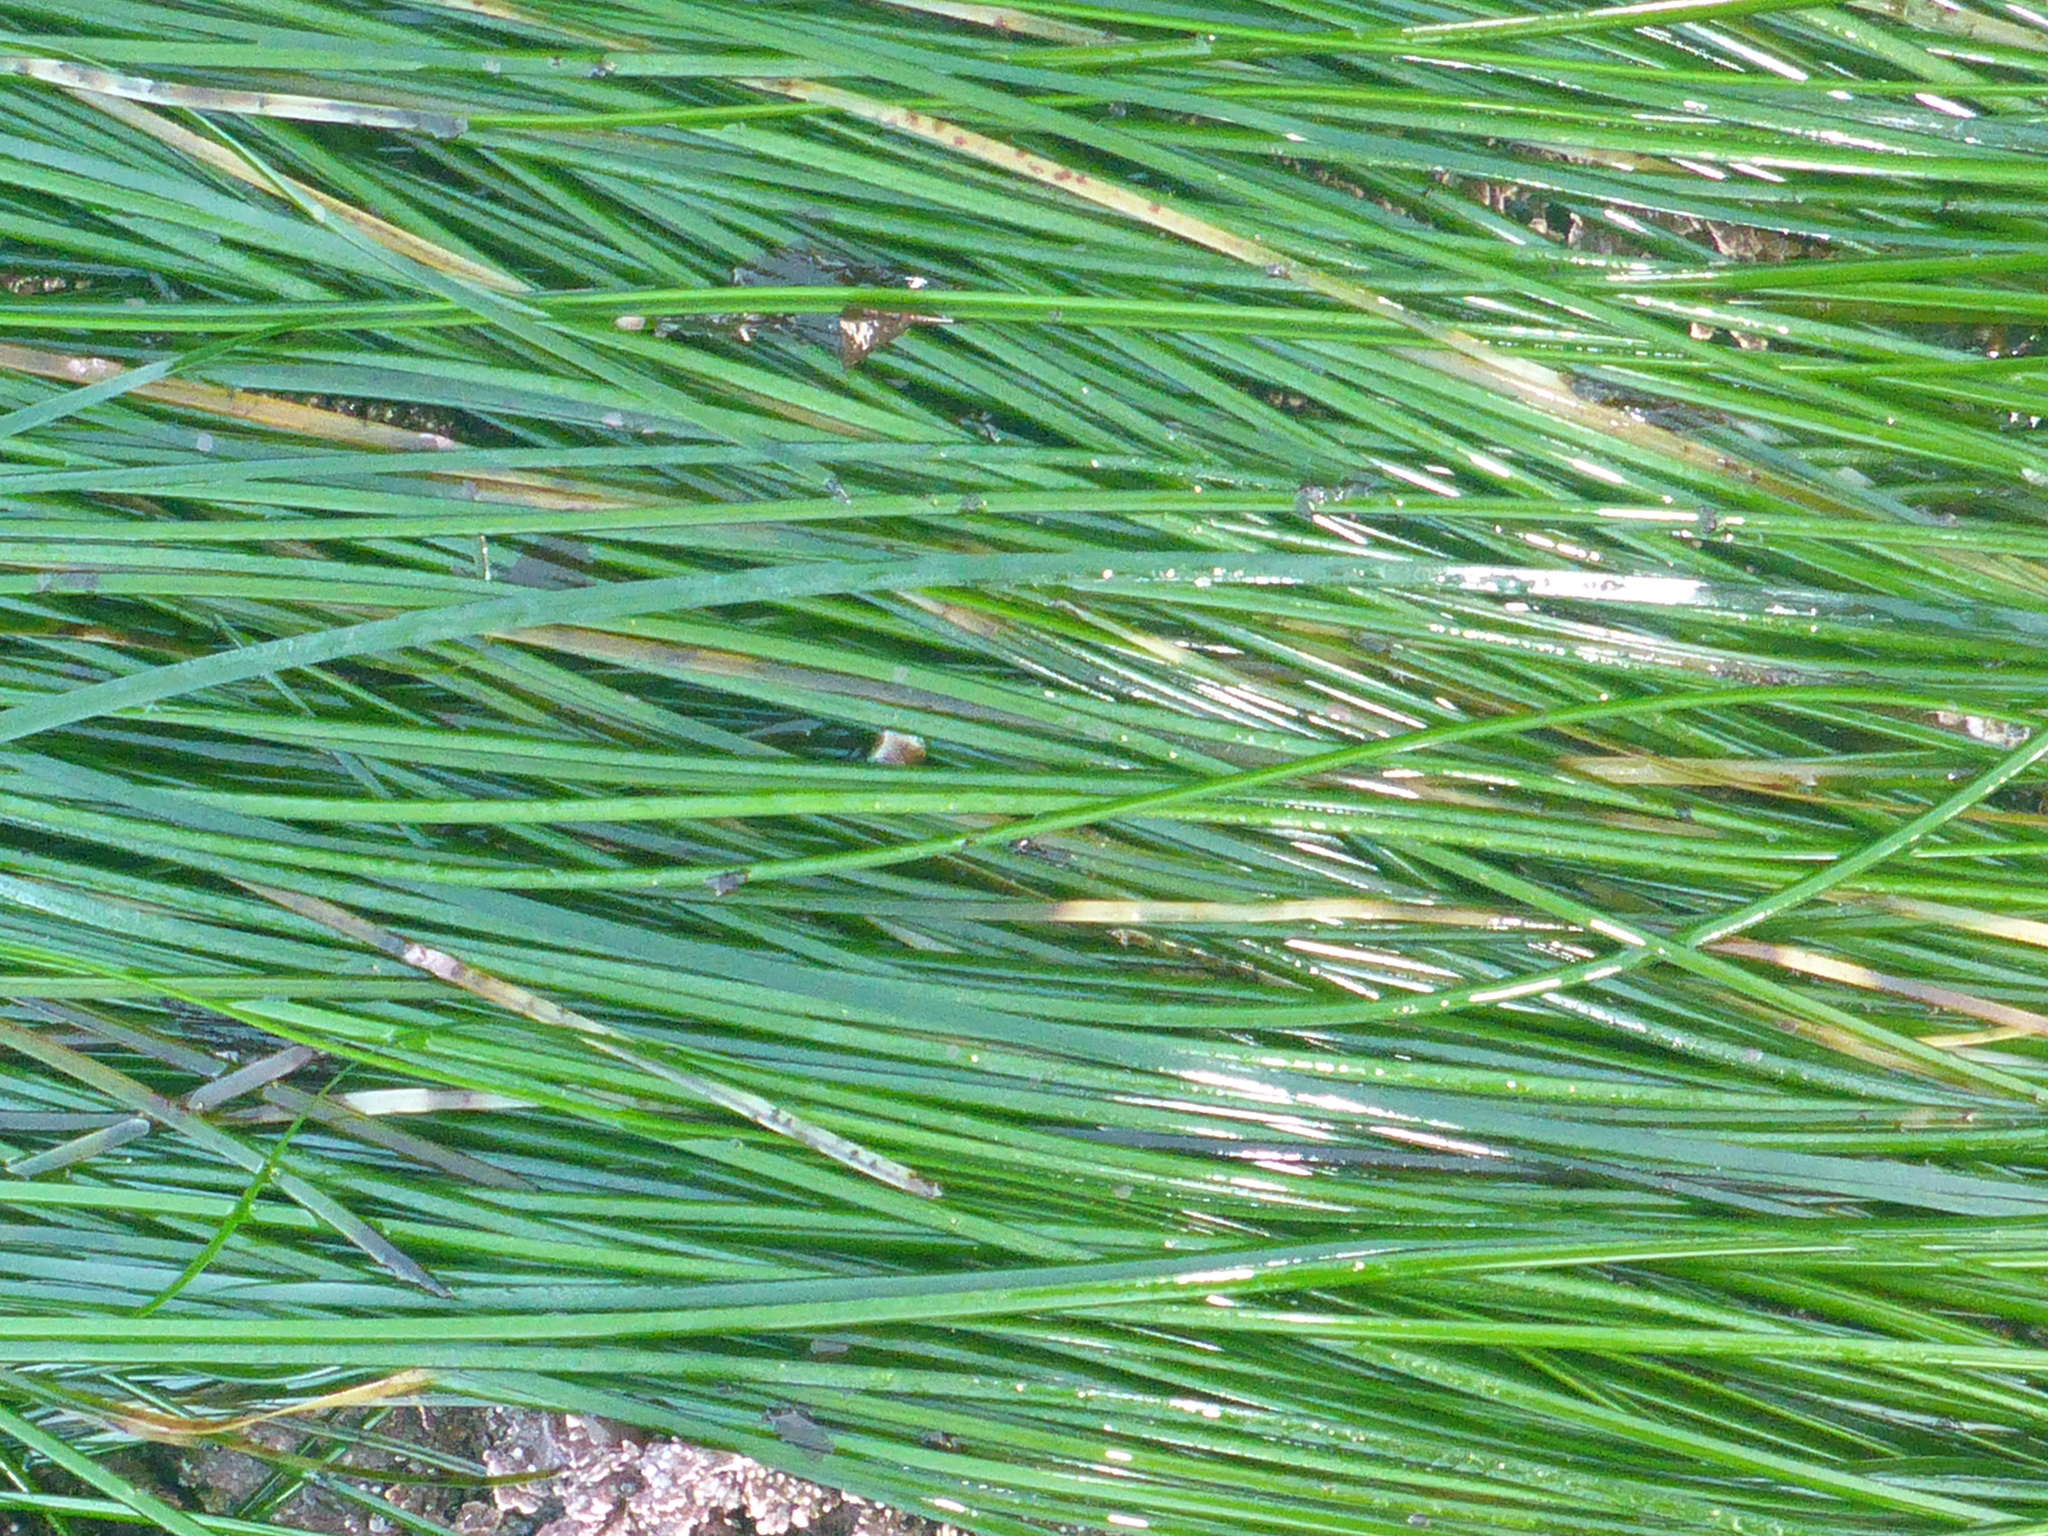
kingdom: Plantae
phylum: Tracheophyta
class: Liliopsida
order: Alismatales
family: Zosteraceae
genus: Phyllospadix
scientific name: Phyllospadix torreyi
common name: Surfgrass
